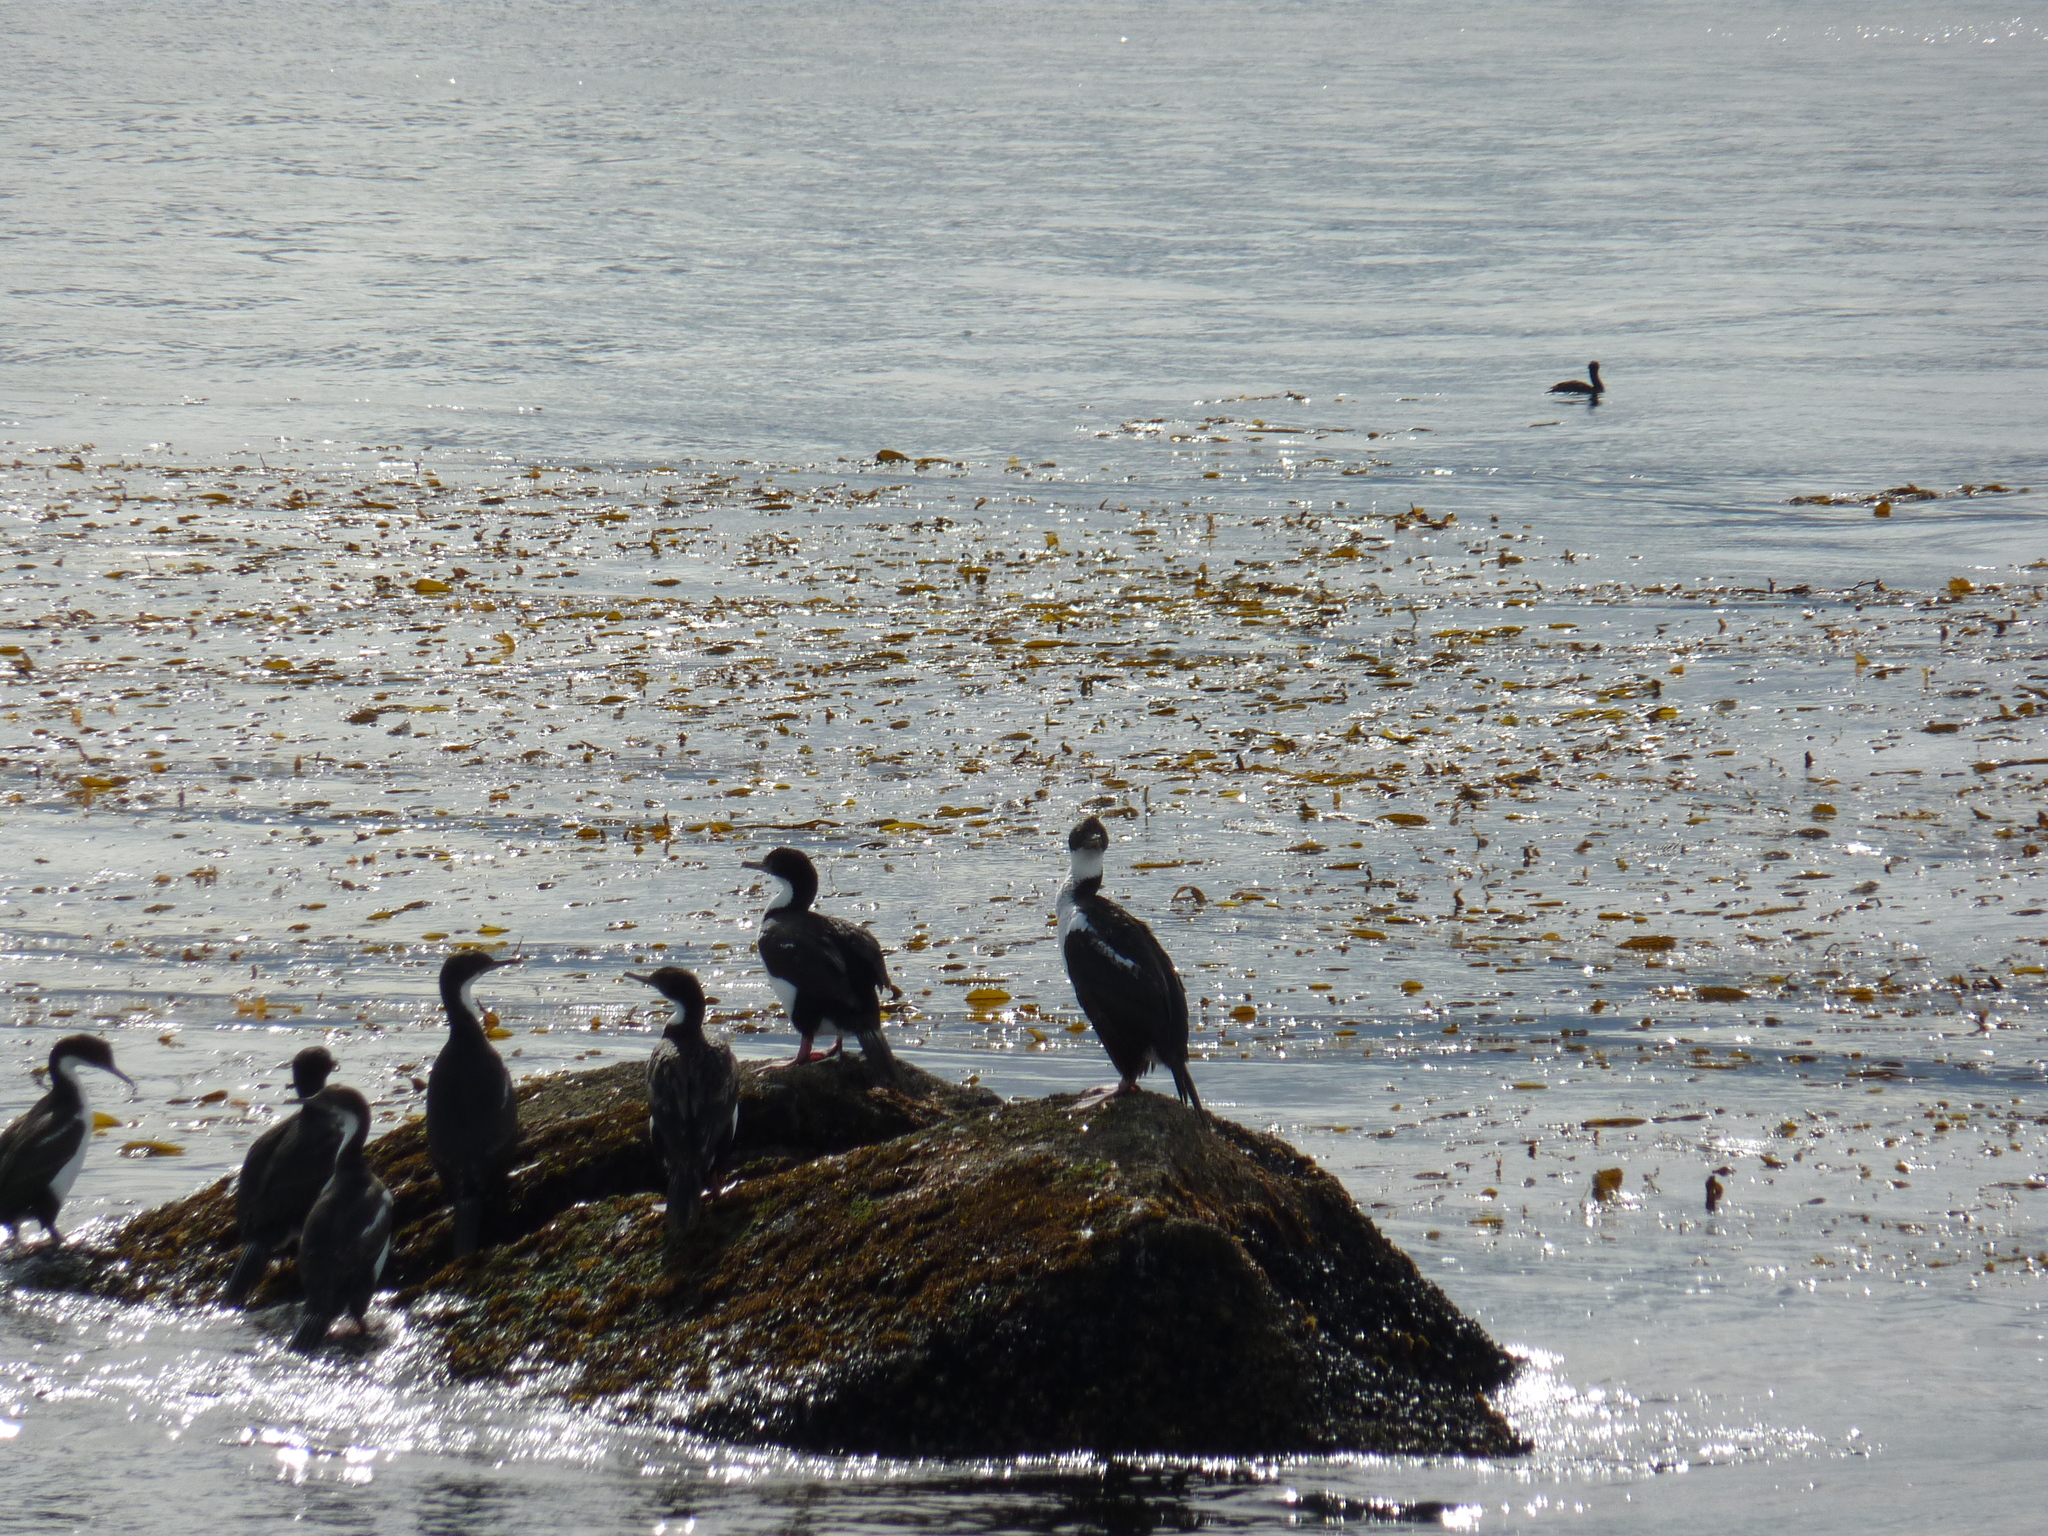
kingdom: Animalia
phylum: Chordata
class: Aves
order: Suliformes
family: Phalacrocoracidae
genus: Leucocarbo
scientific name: Leucocarbo atriceps
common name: Imperial shag
